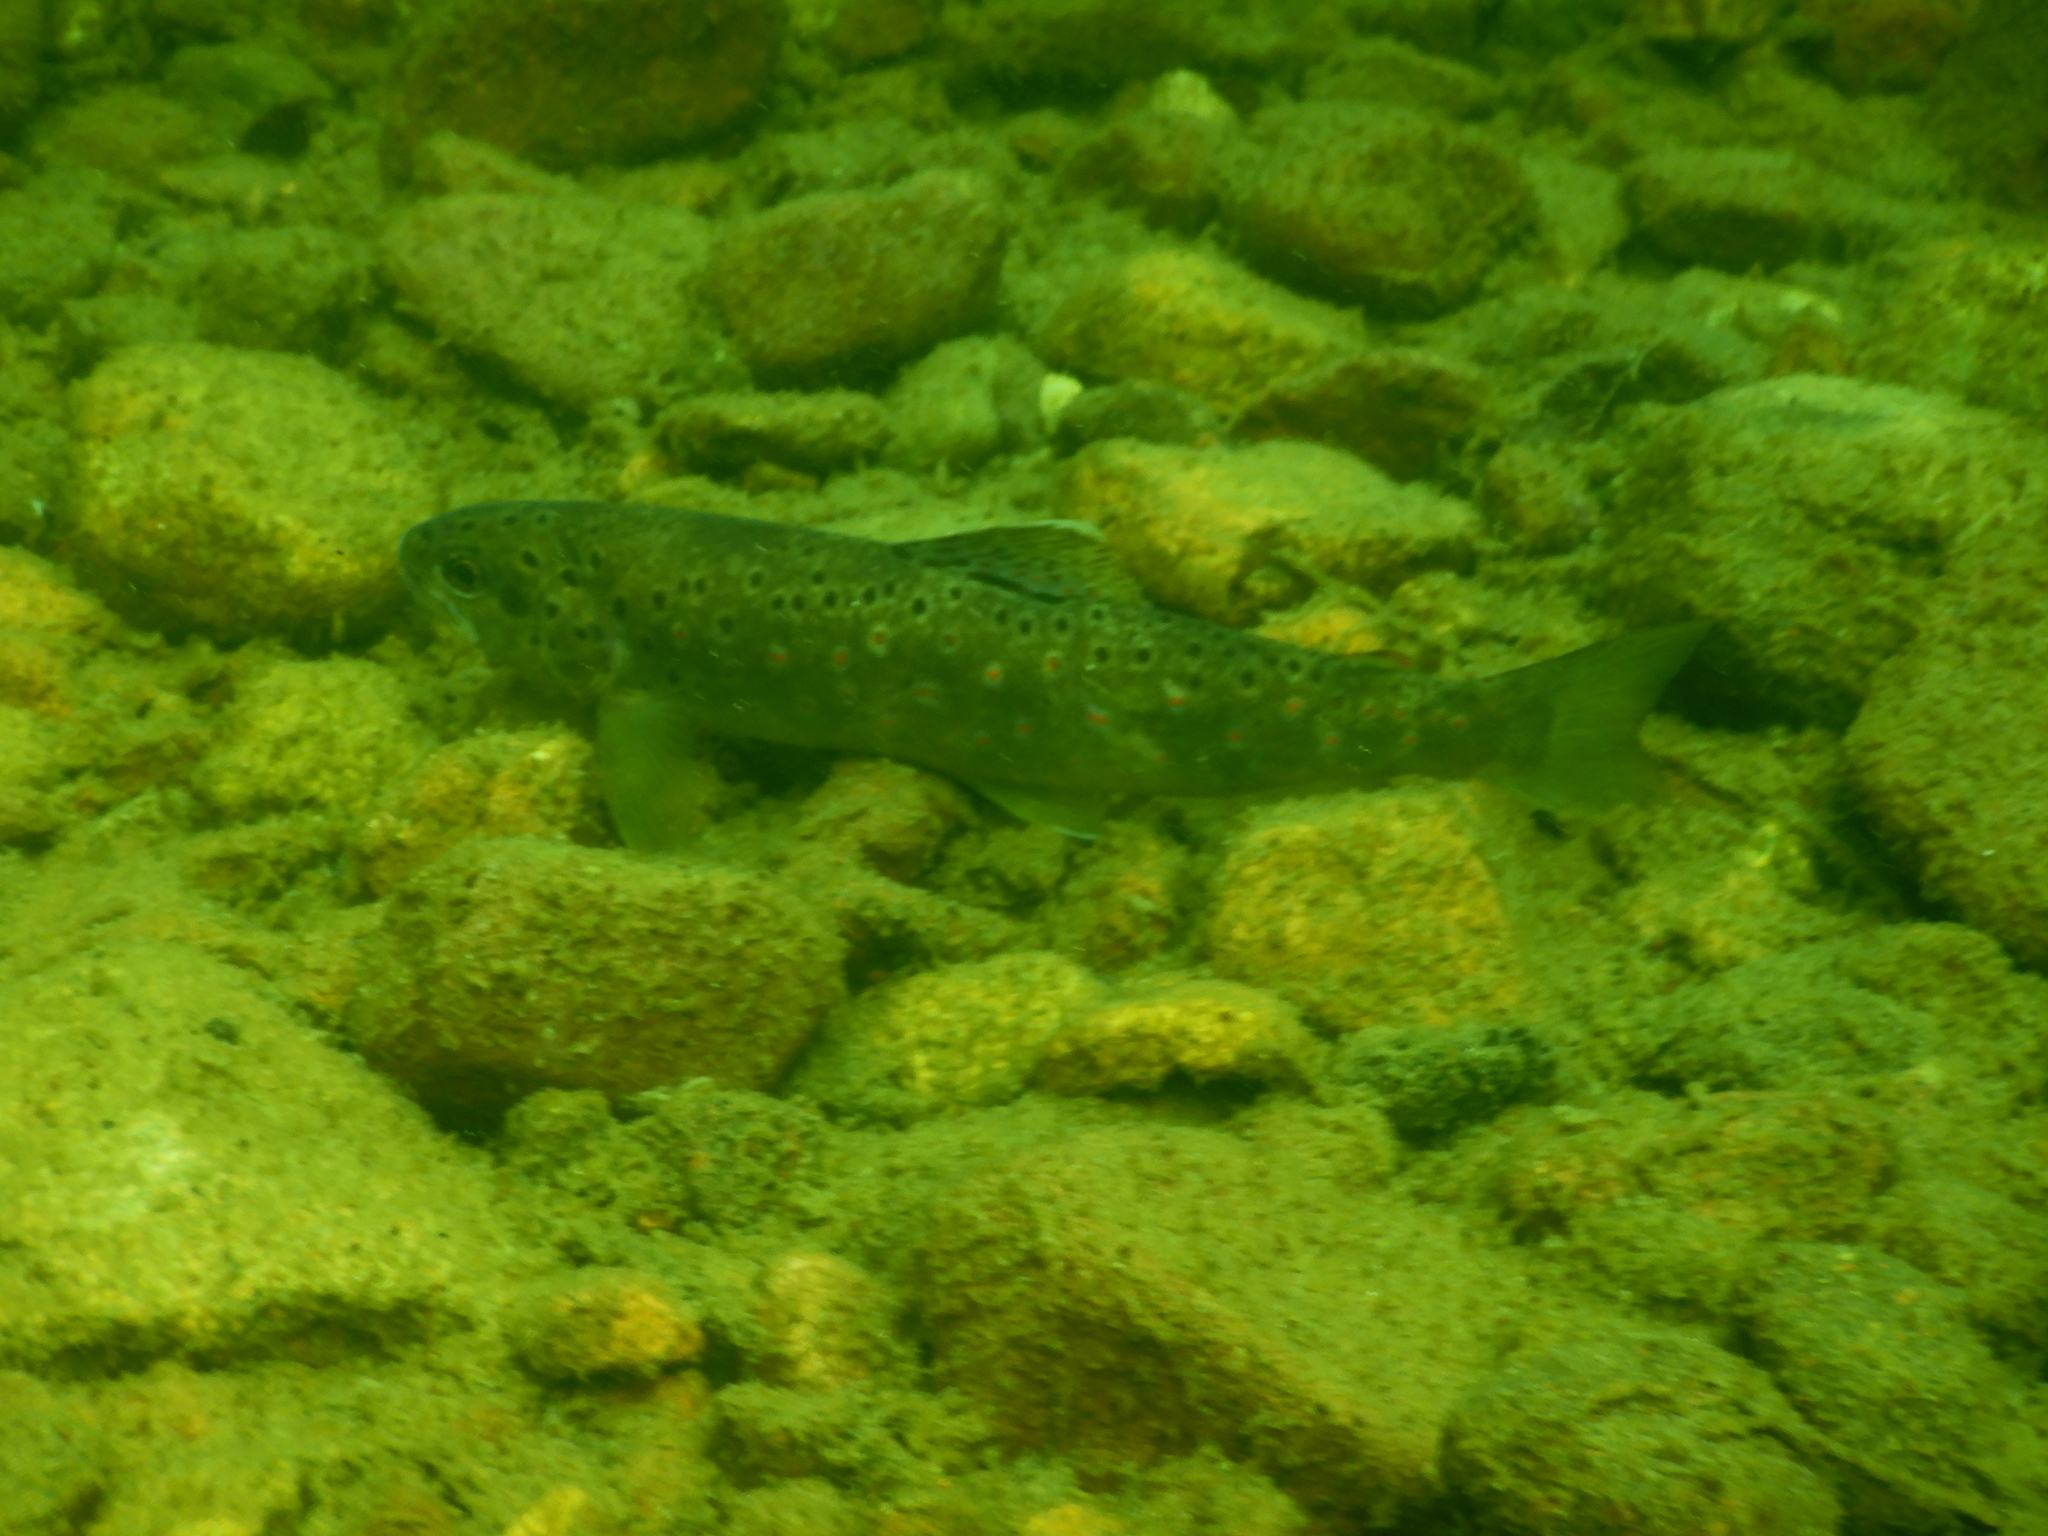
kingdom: Animalia
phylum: Chordata
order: Salmoniformes
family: Salmonidae
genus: Salmo
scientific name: Salmo trutta
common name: Brown trout
